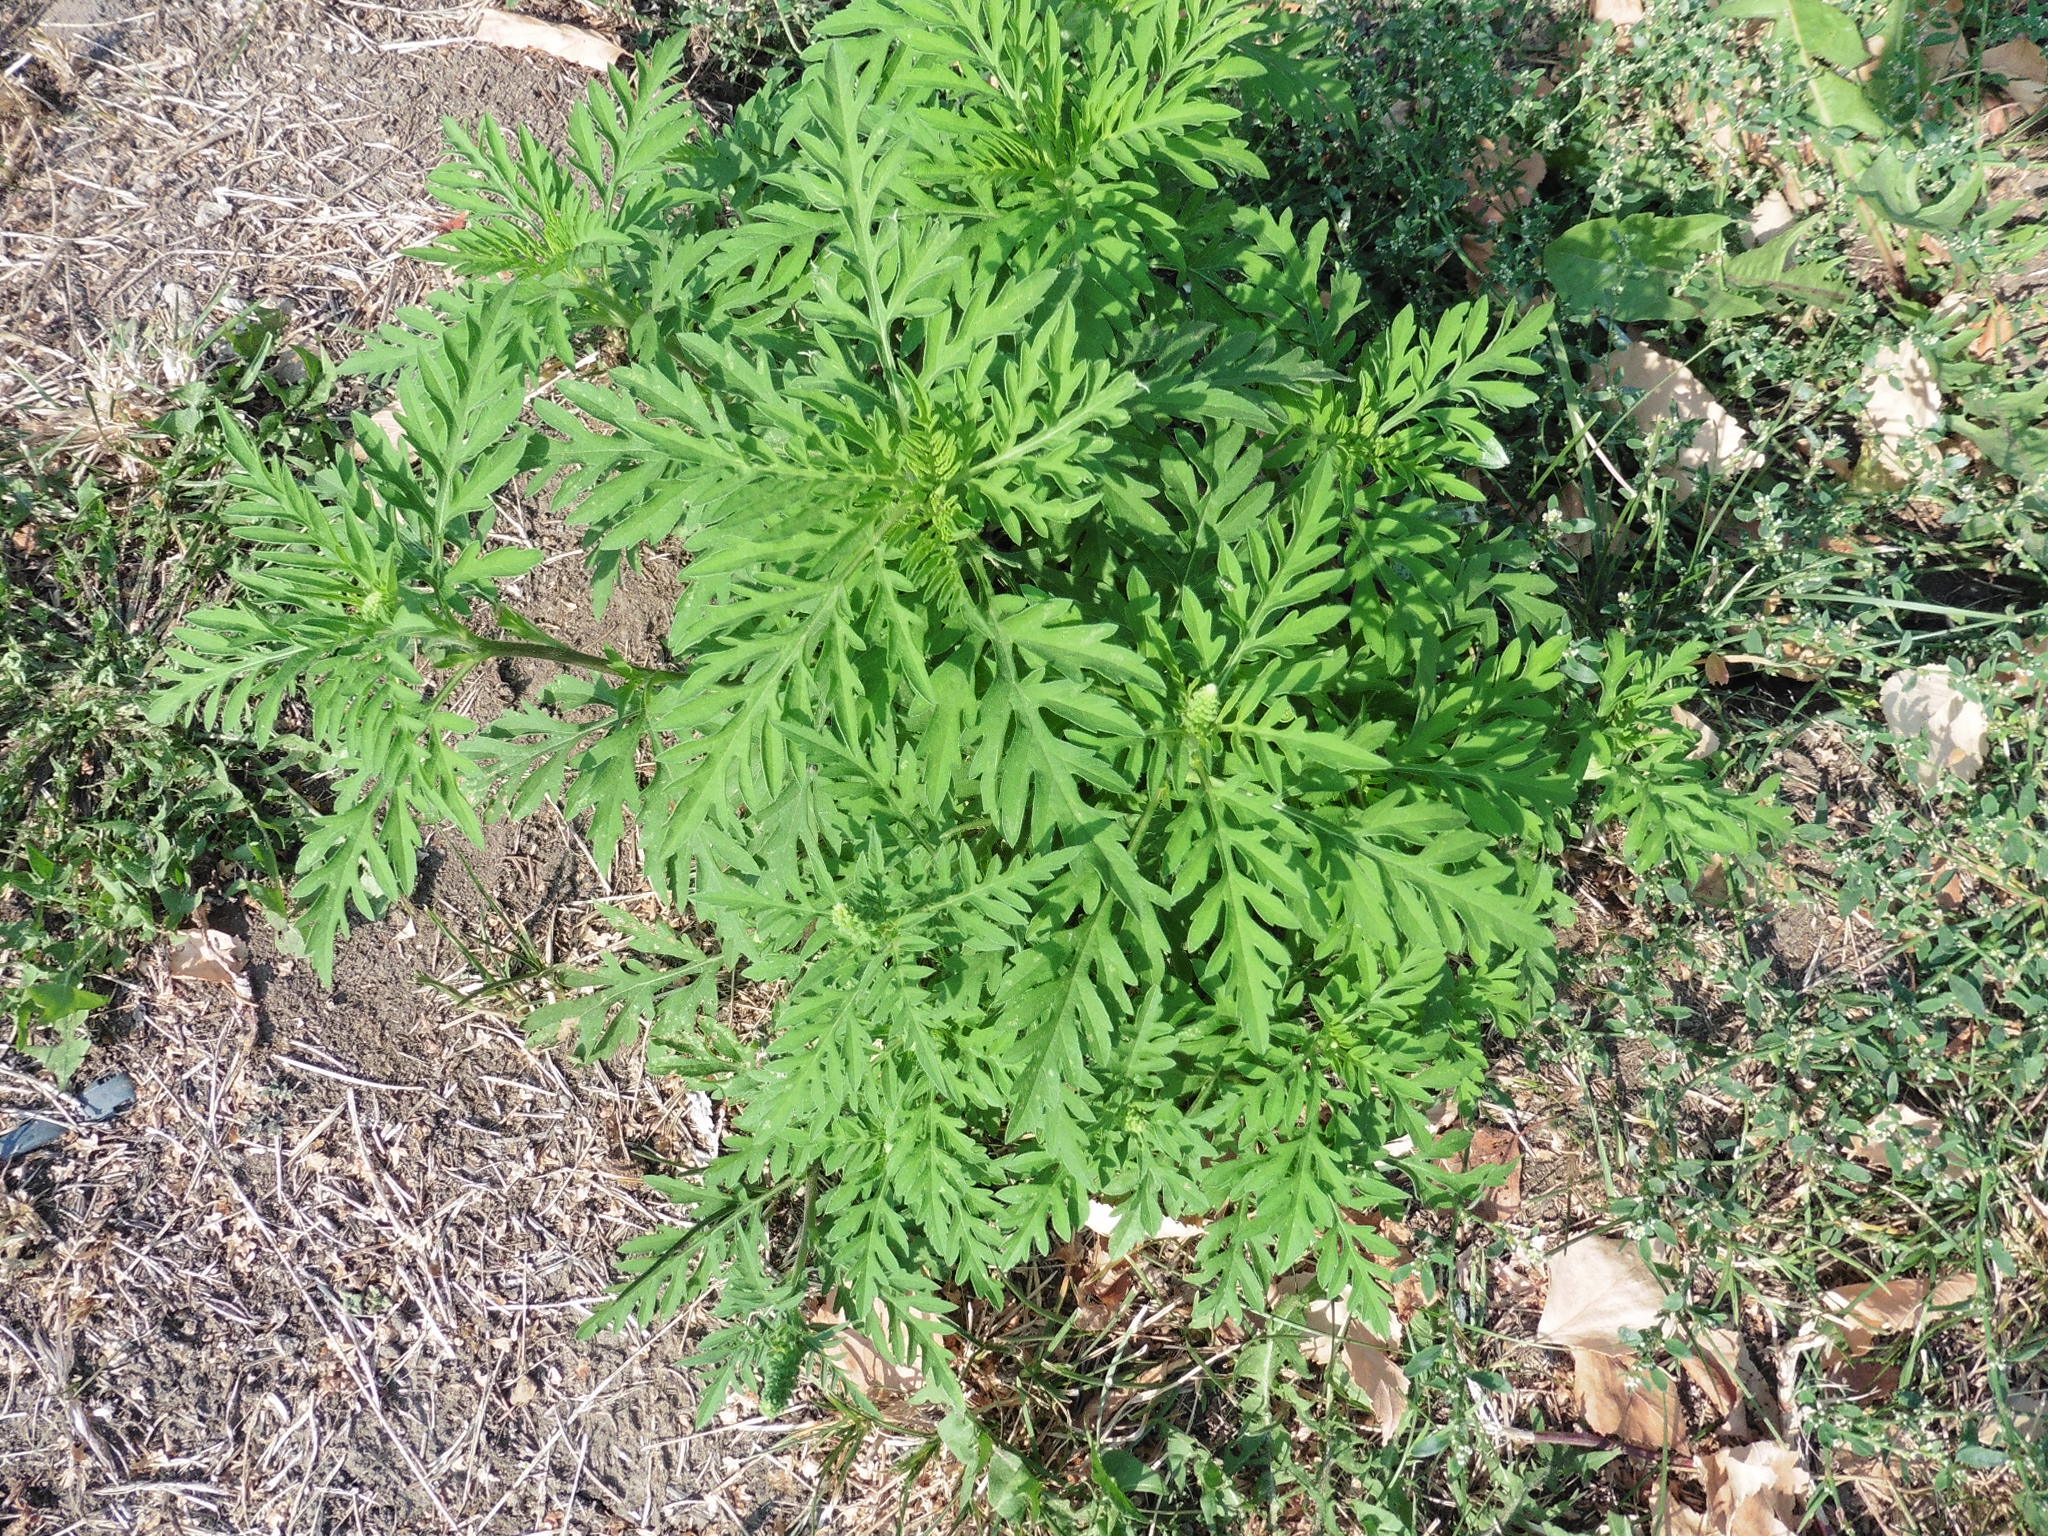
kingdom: Plantae
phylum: Tracheophyta
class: Magnoliopsida
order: Asterales
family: Asteraceae
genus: Ambrosia
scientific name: Ambrosia artemisiifolia
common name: Annual ragweed
